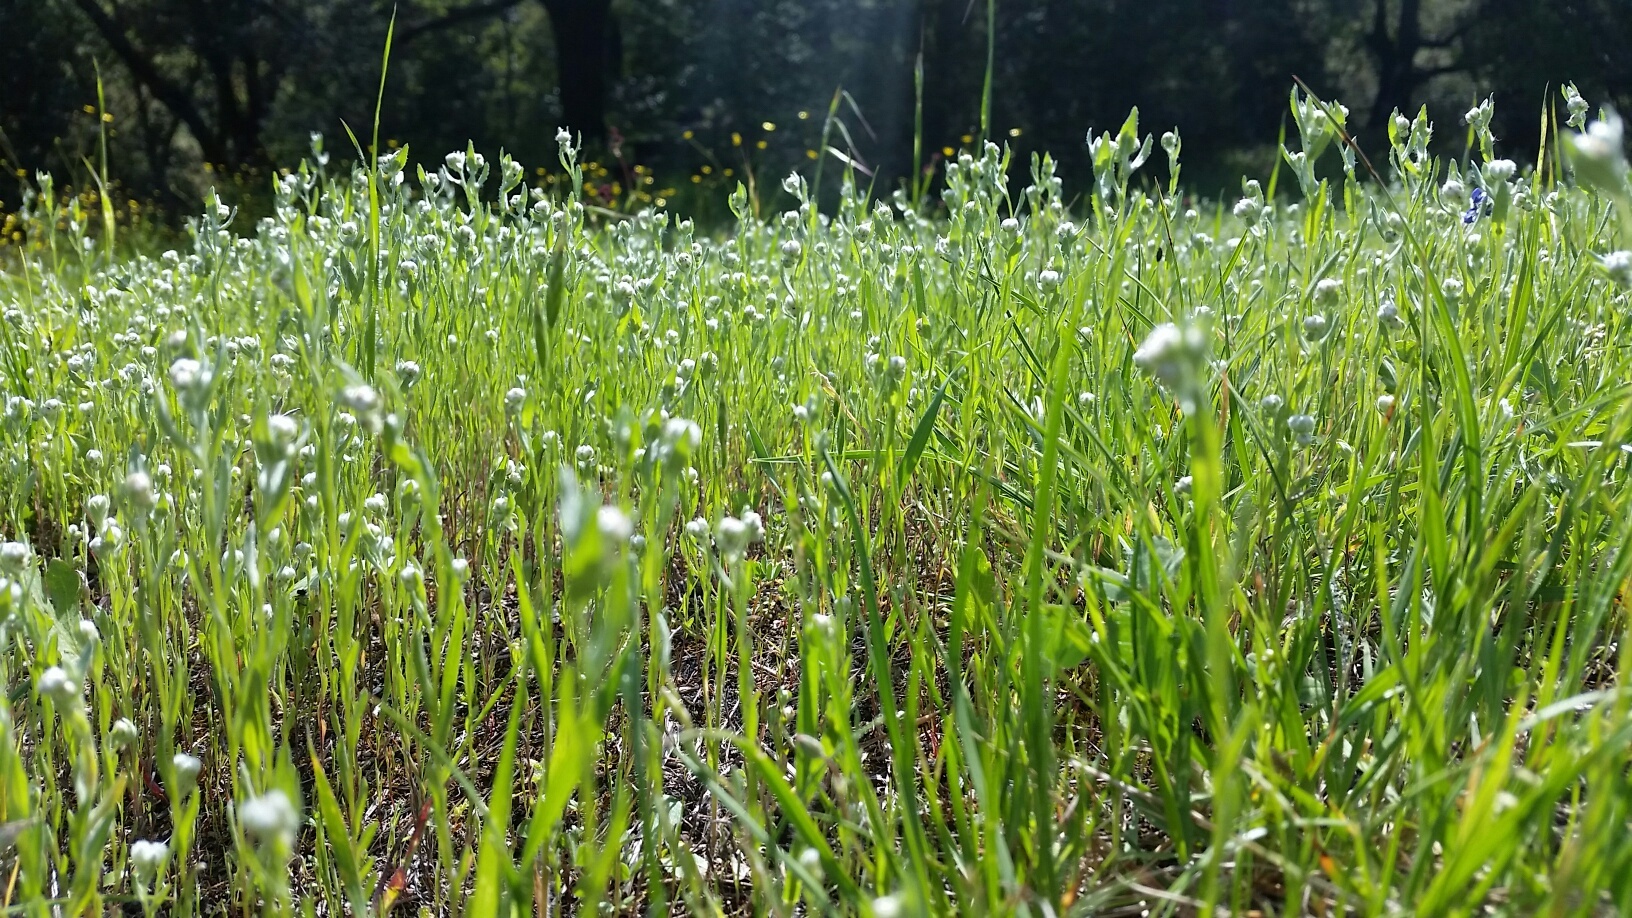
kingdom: Plantae
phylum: Tracheophyta
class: Magnoliopsida
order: Asterales
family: Asteraceae
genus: Bombycilaena
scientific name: Bombycilaena californica
